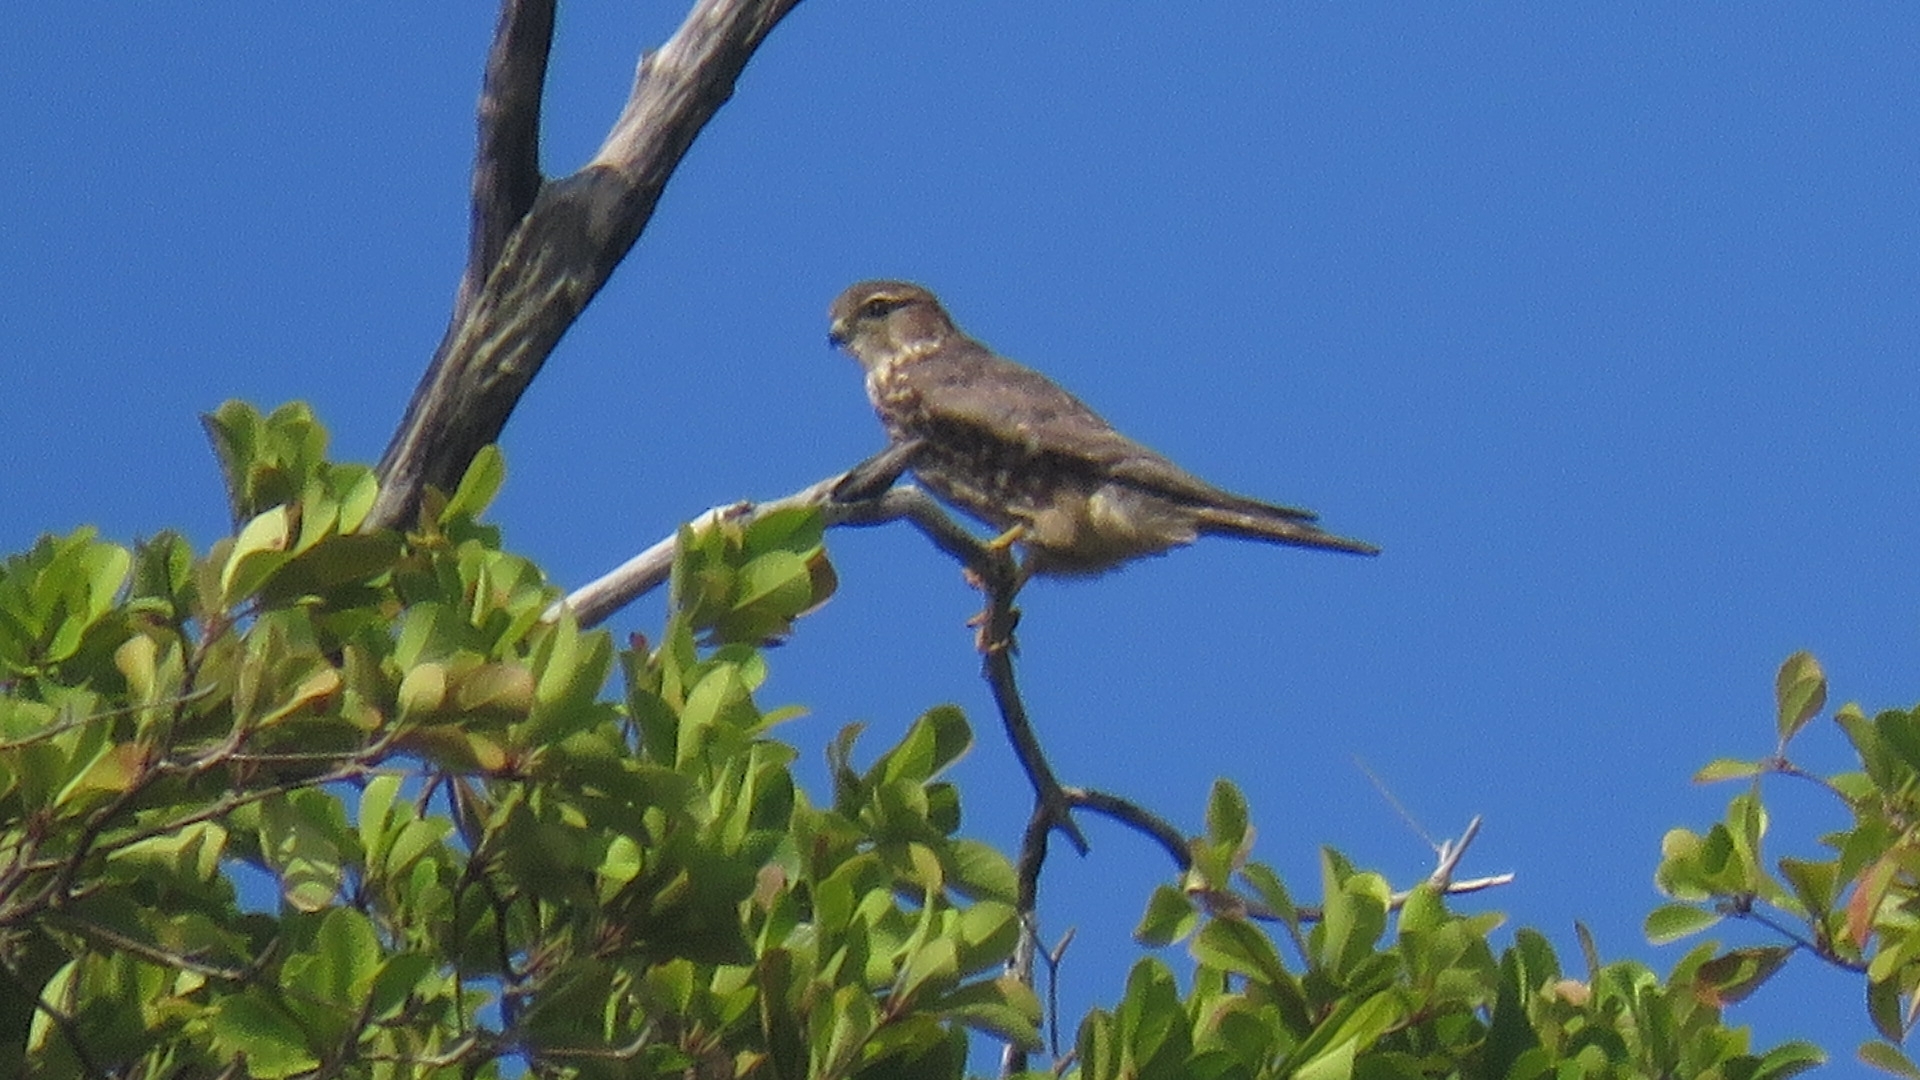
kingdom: Animalia
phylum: Chordata
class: Aves
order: Falconiformes
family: Falconidae
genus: Falco
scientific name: Falco columbarius
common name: Merlin
